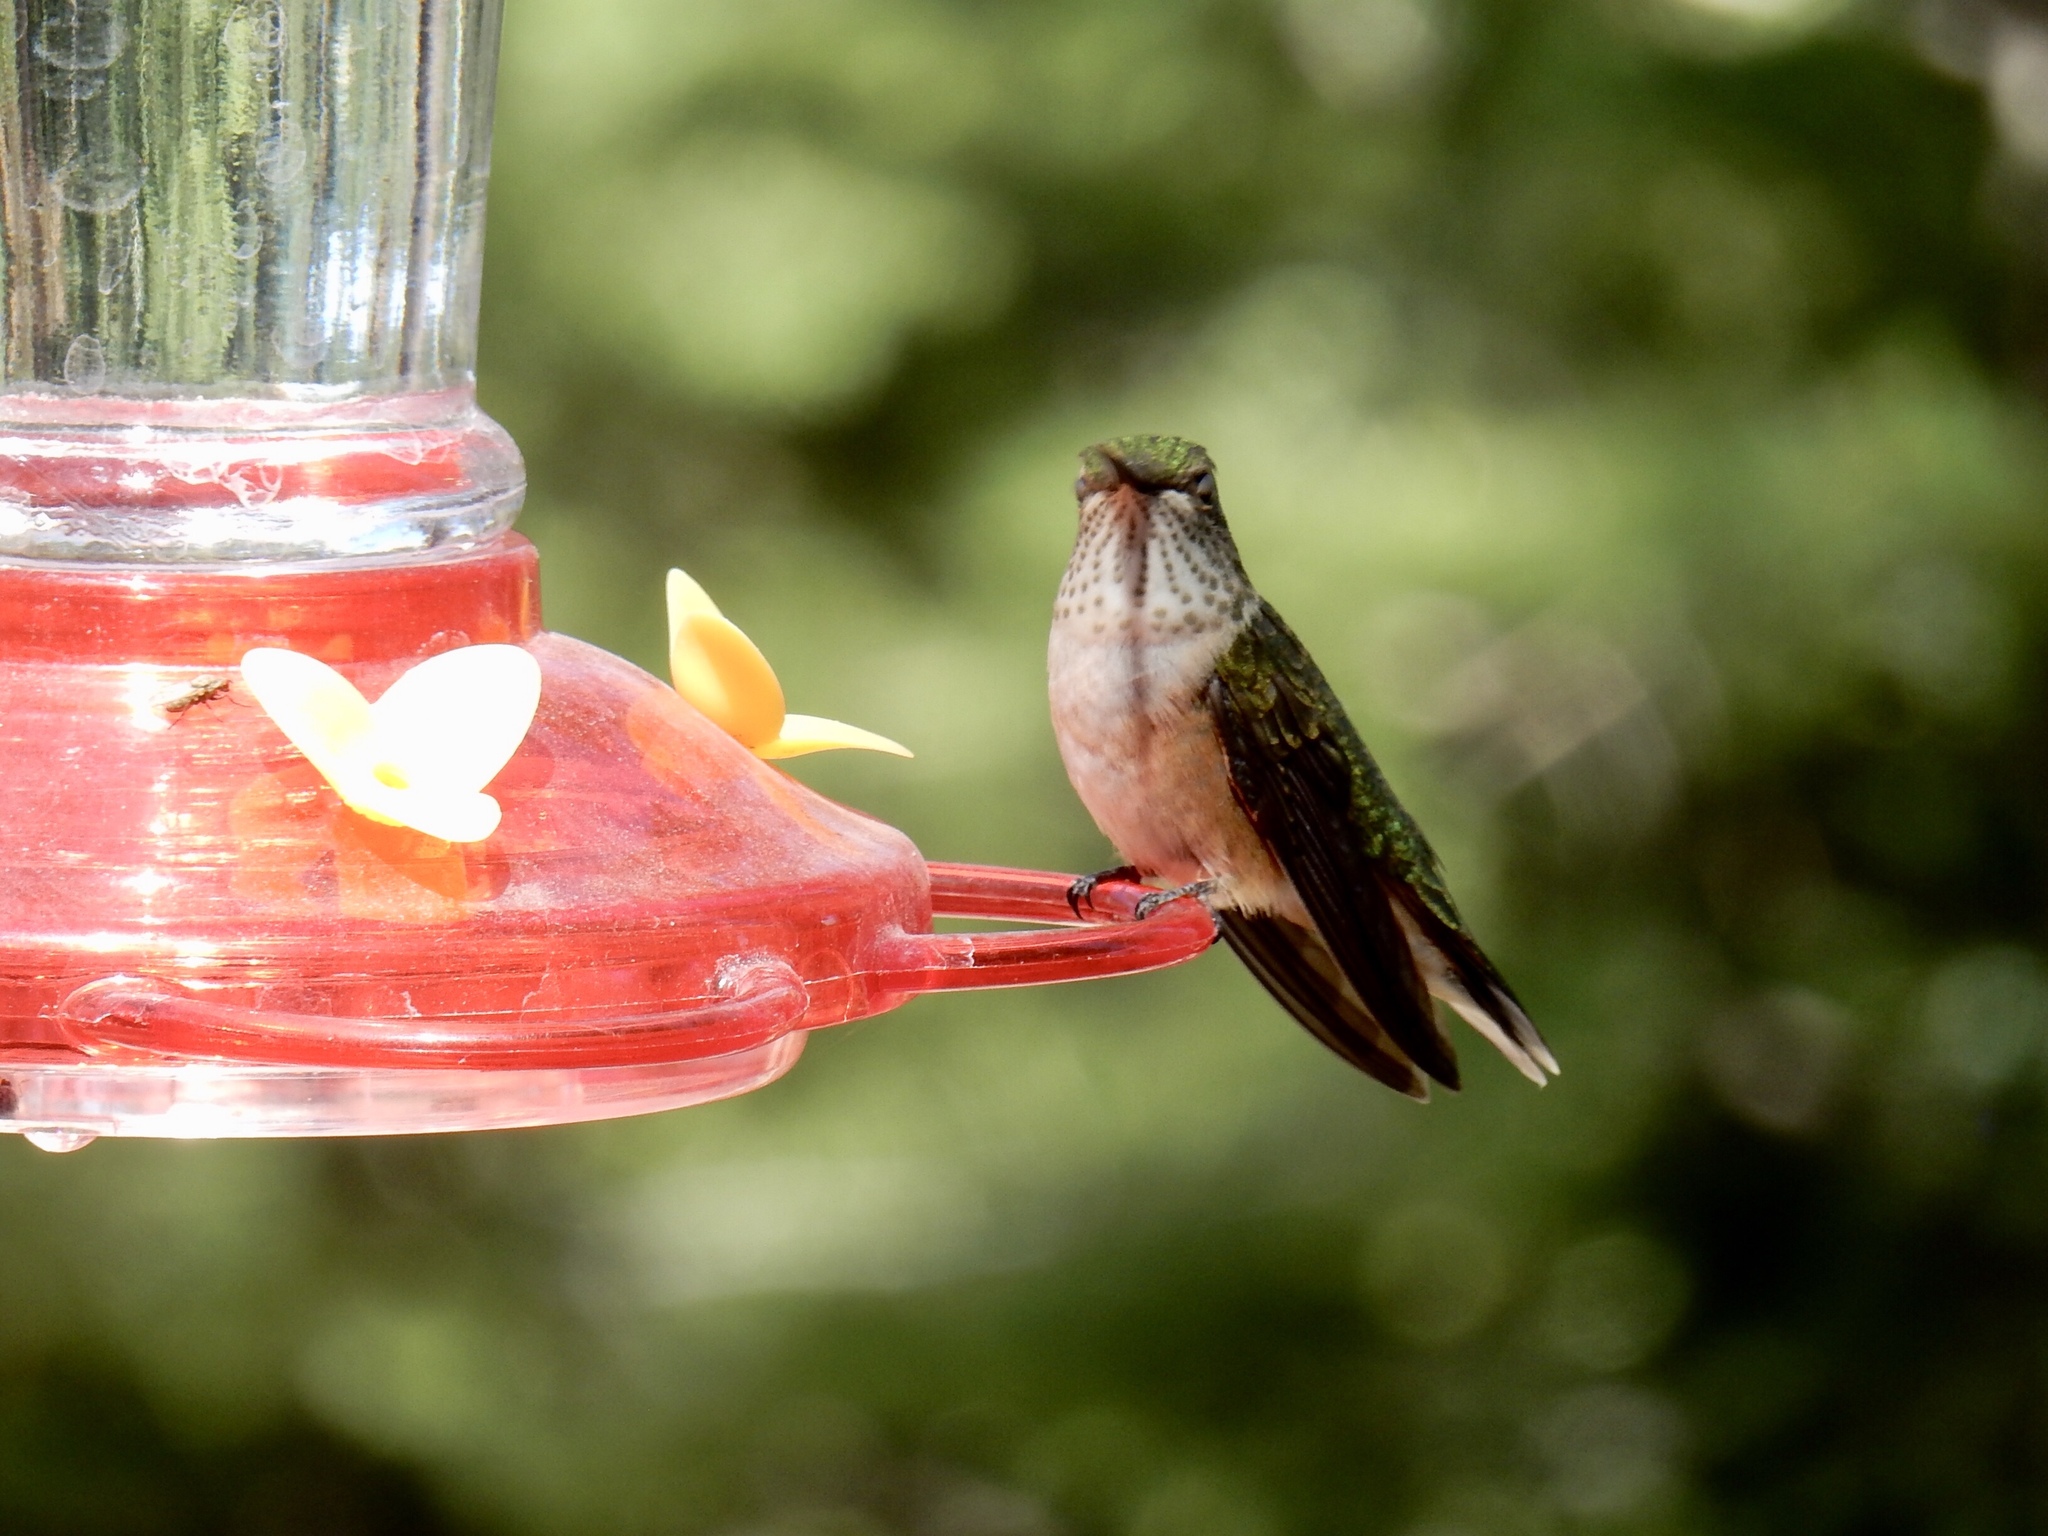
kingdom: Animalia
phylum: Chordata
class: Aves
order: Apodiformes
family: Trochilidae
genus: Selasphorus
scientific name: Selasphorus platycercus
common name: Broad-tailed hummingbird
